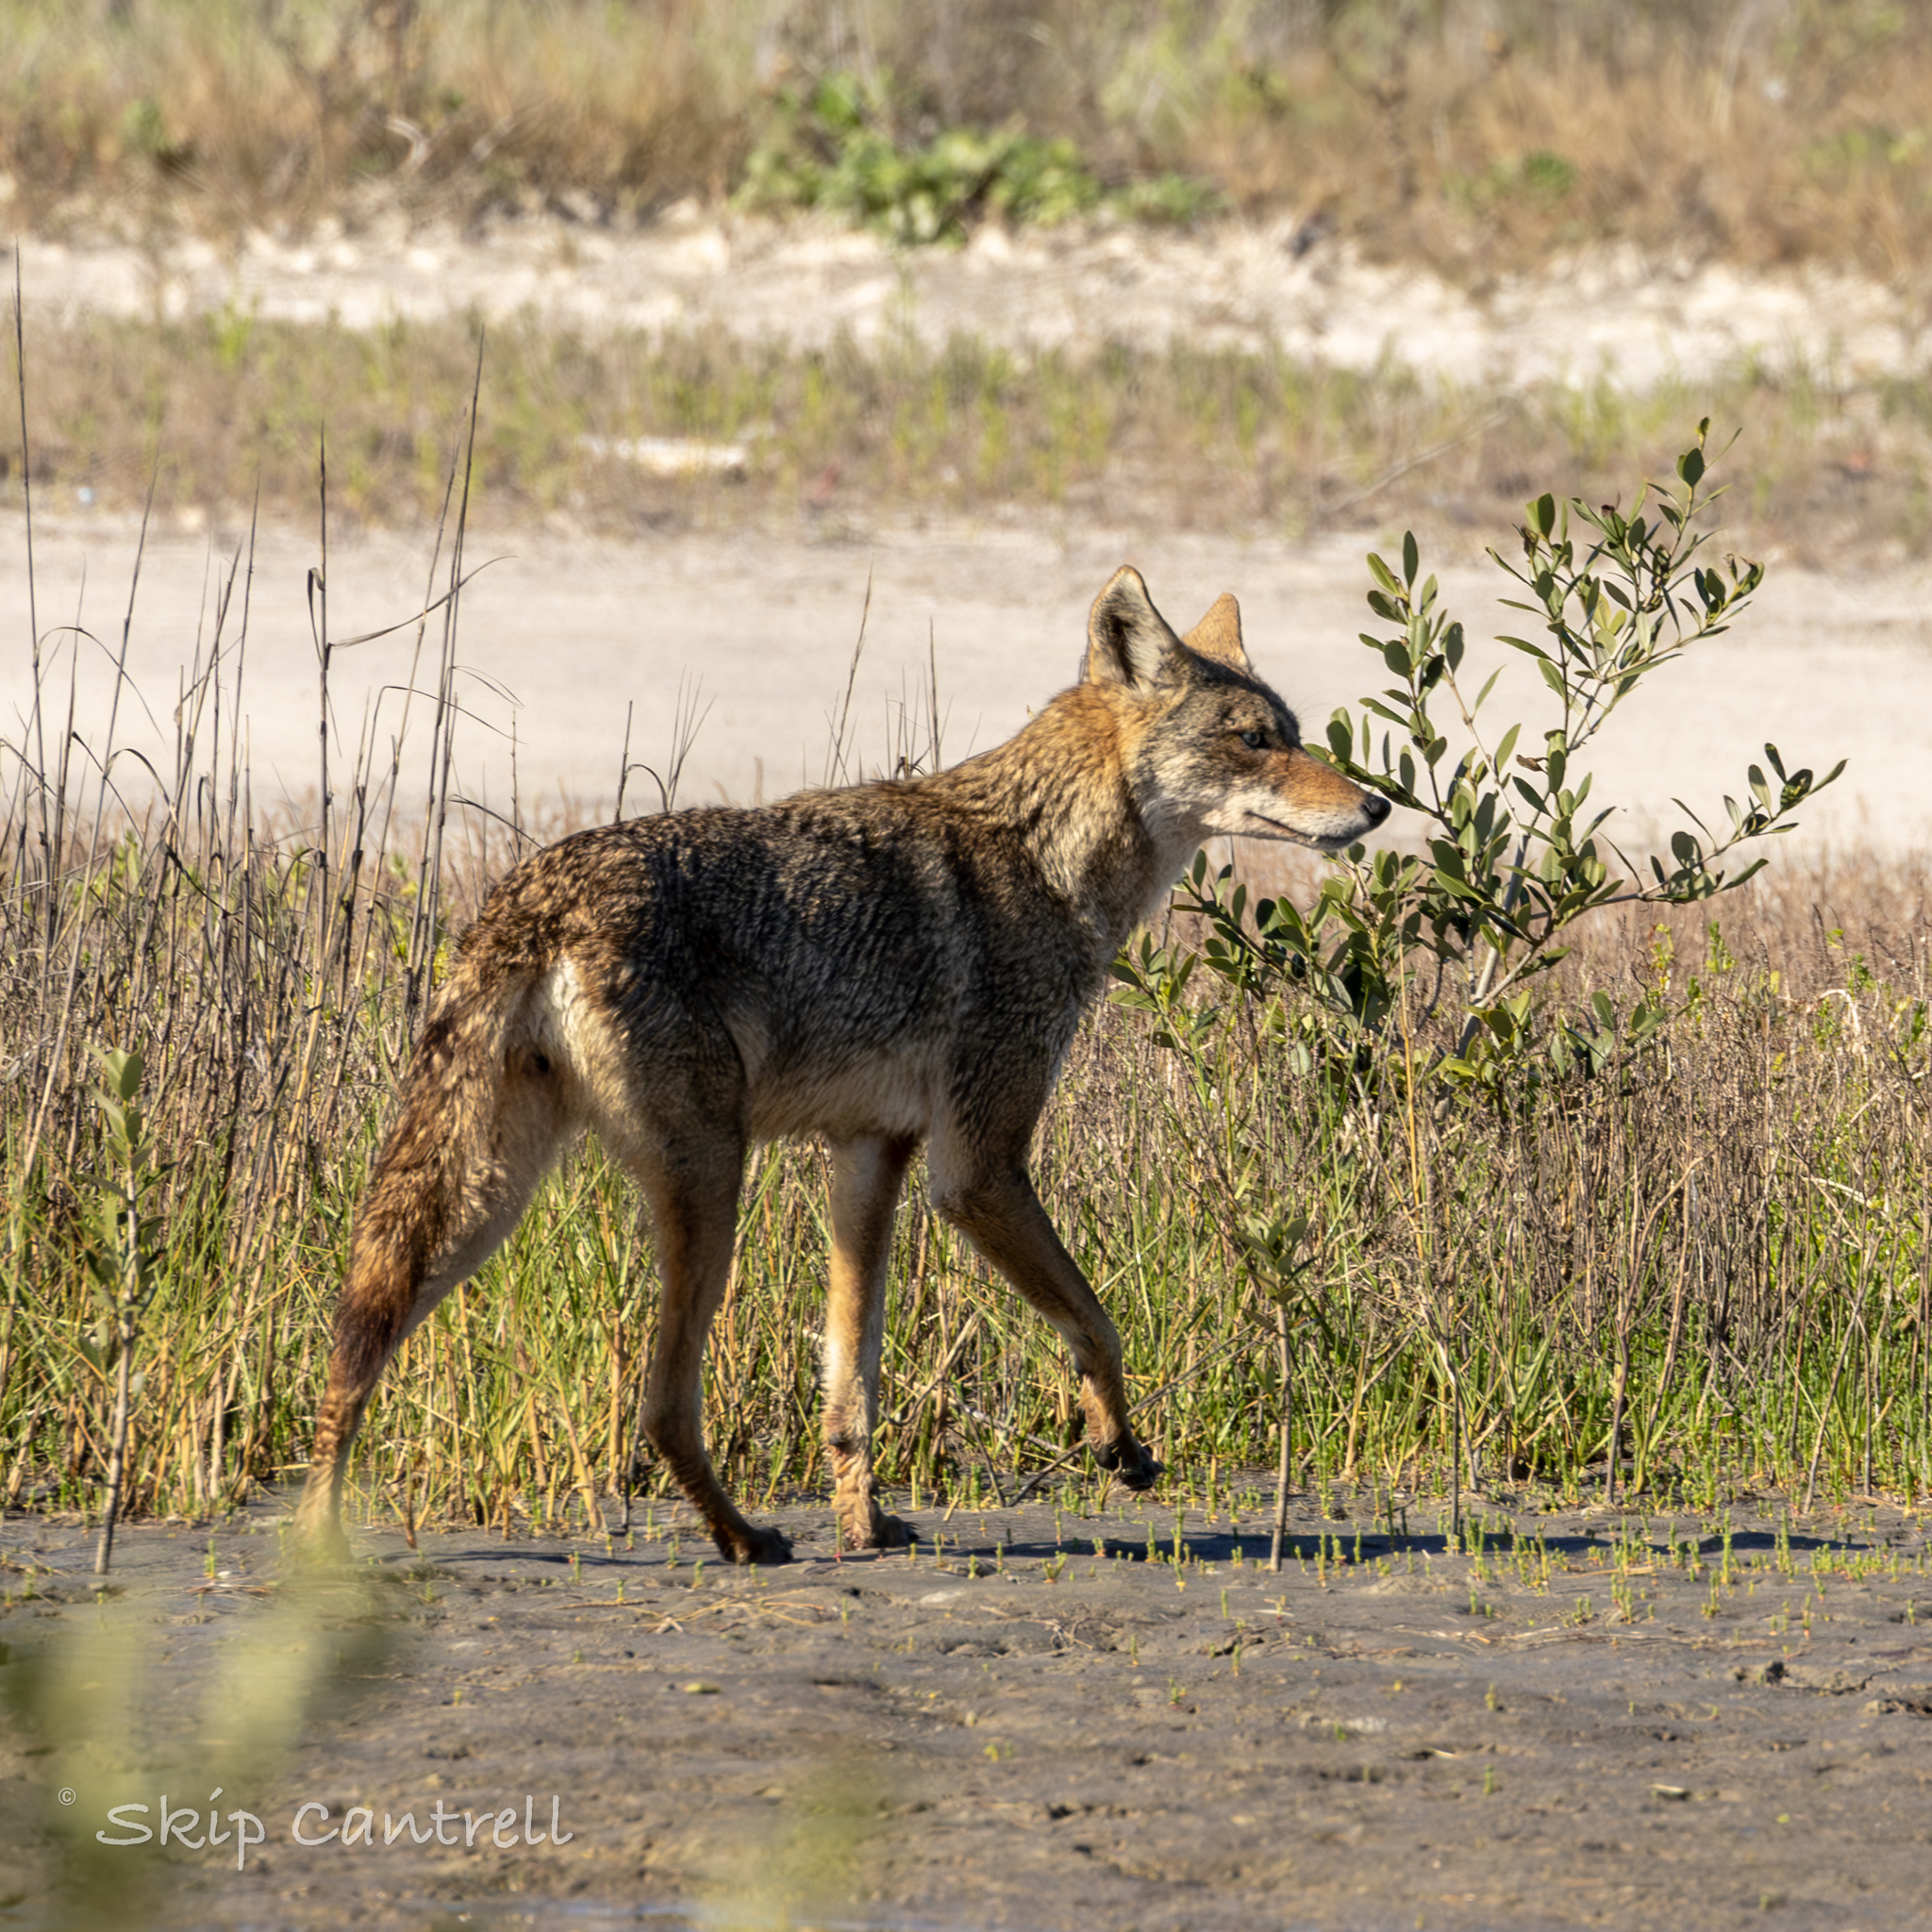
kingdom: Animalia
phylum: Chordata
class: Mammalia
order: Carnivora
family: Canidae
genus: Canis
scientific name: Canis latrans
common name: Coyote
